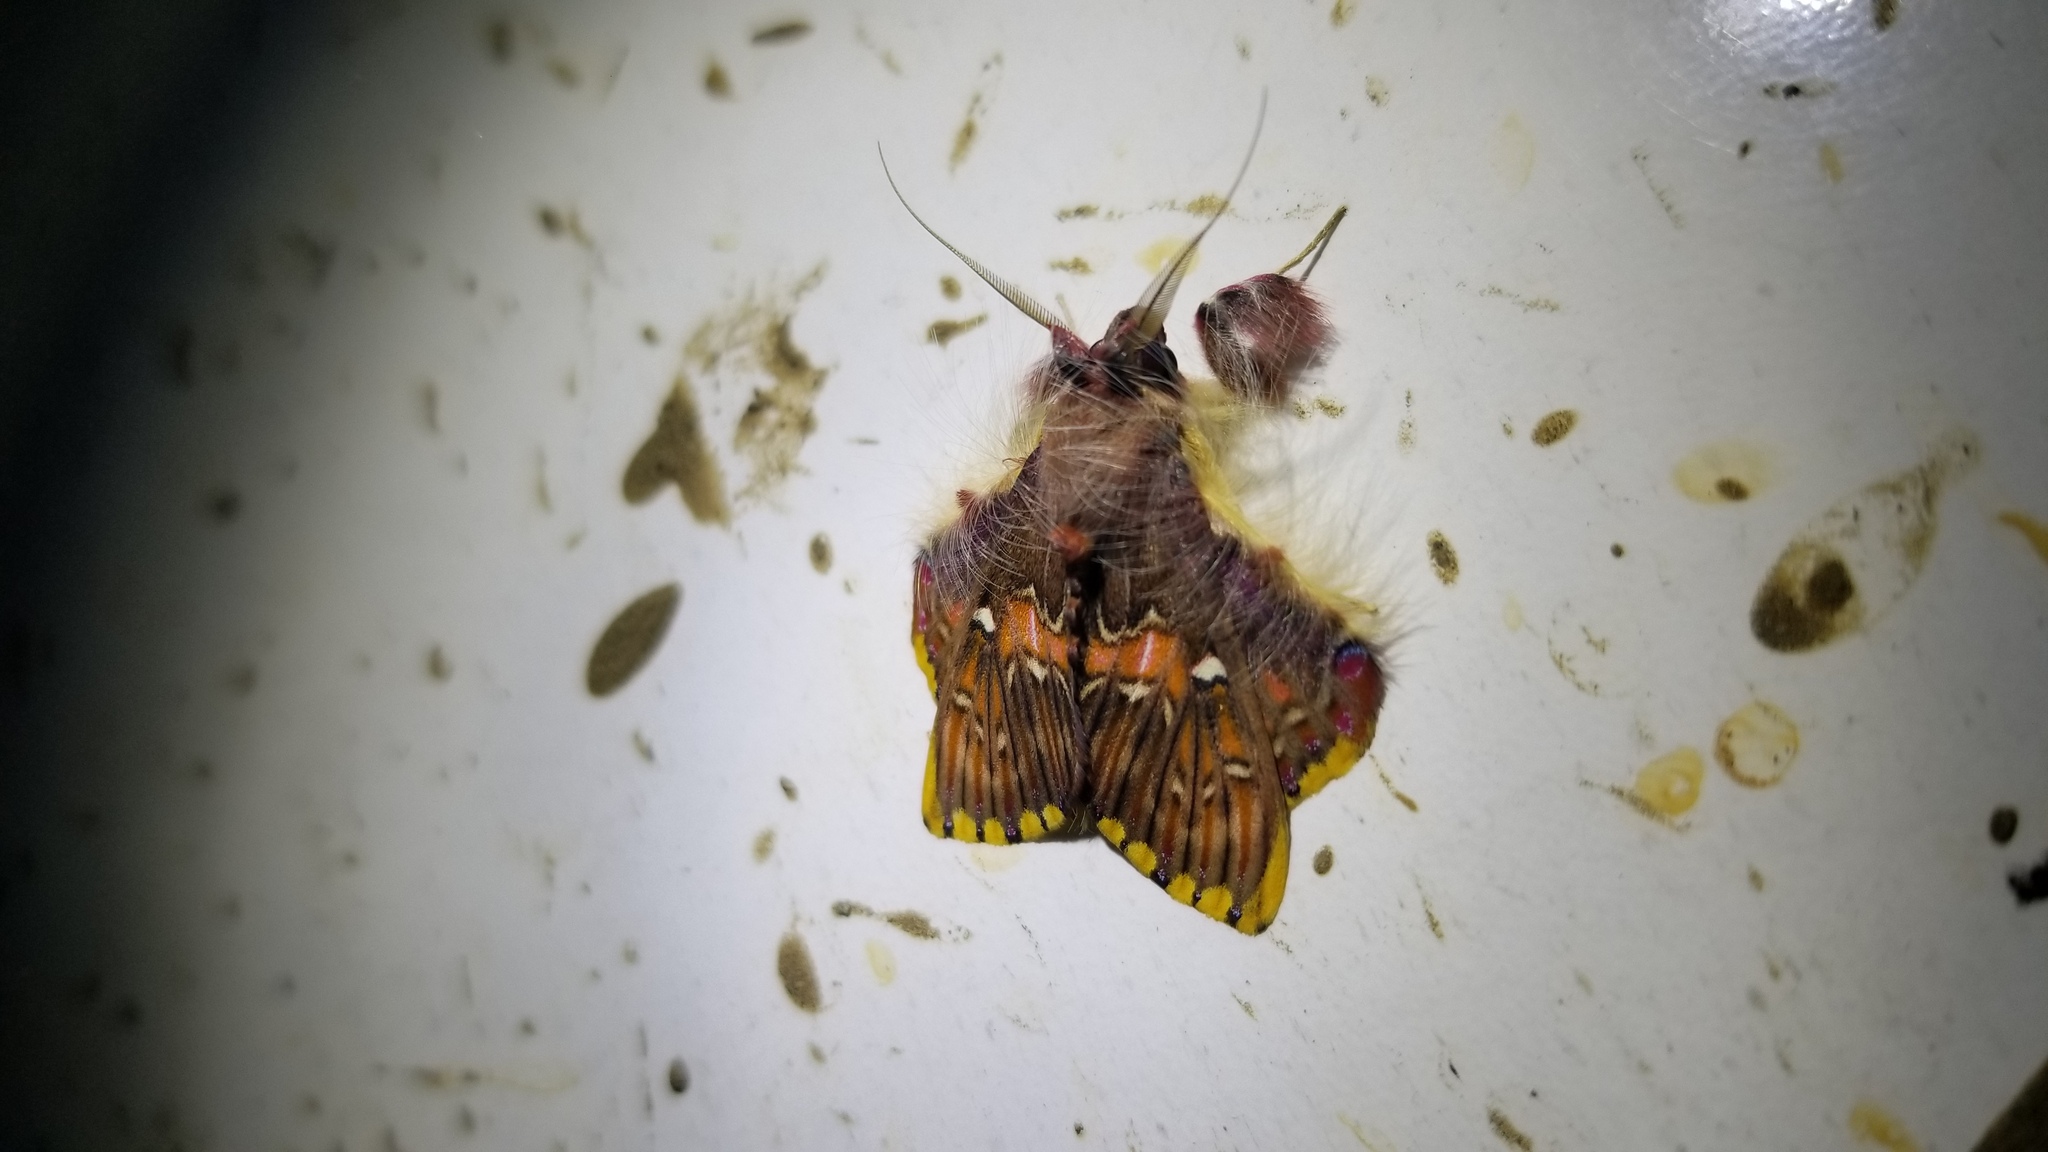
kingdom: Animalia
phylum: Arthropoda
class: Insecta
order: Lepidoptera
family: Erebidae
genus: Sosxetra
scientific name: Sosxetra grata
